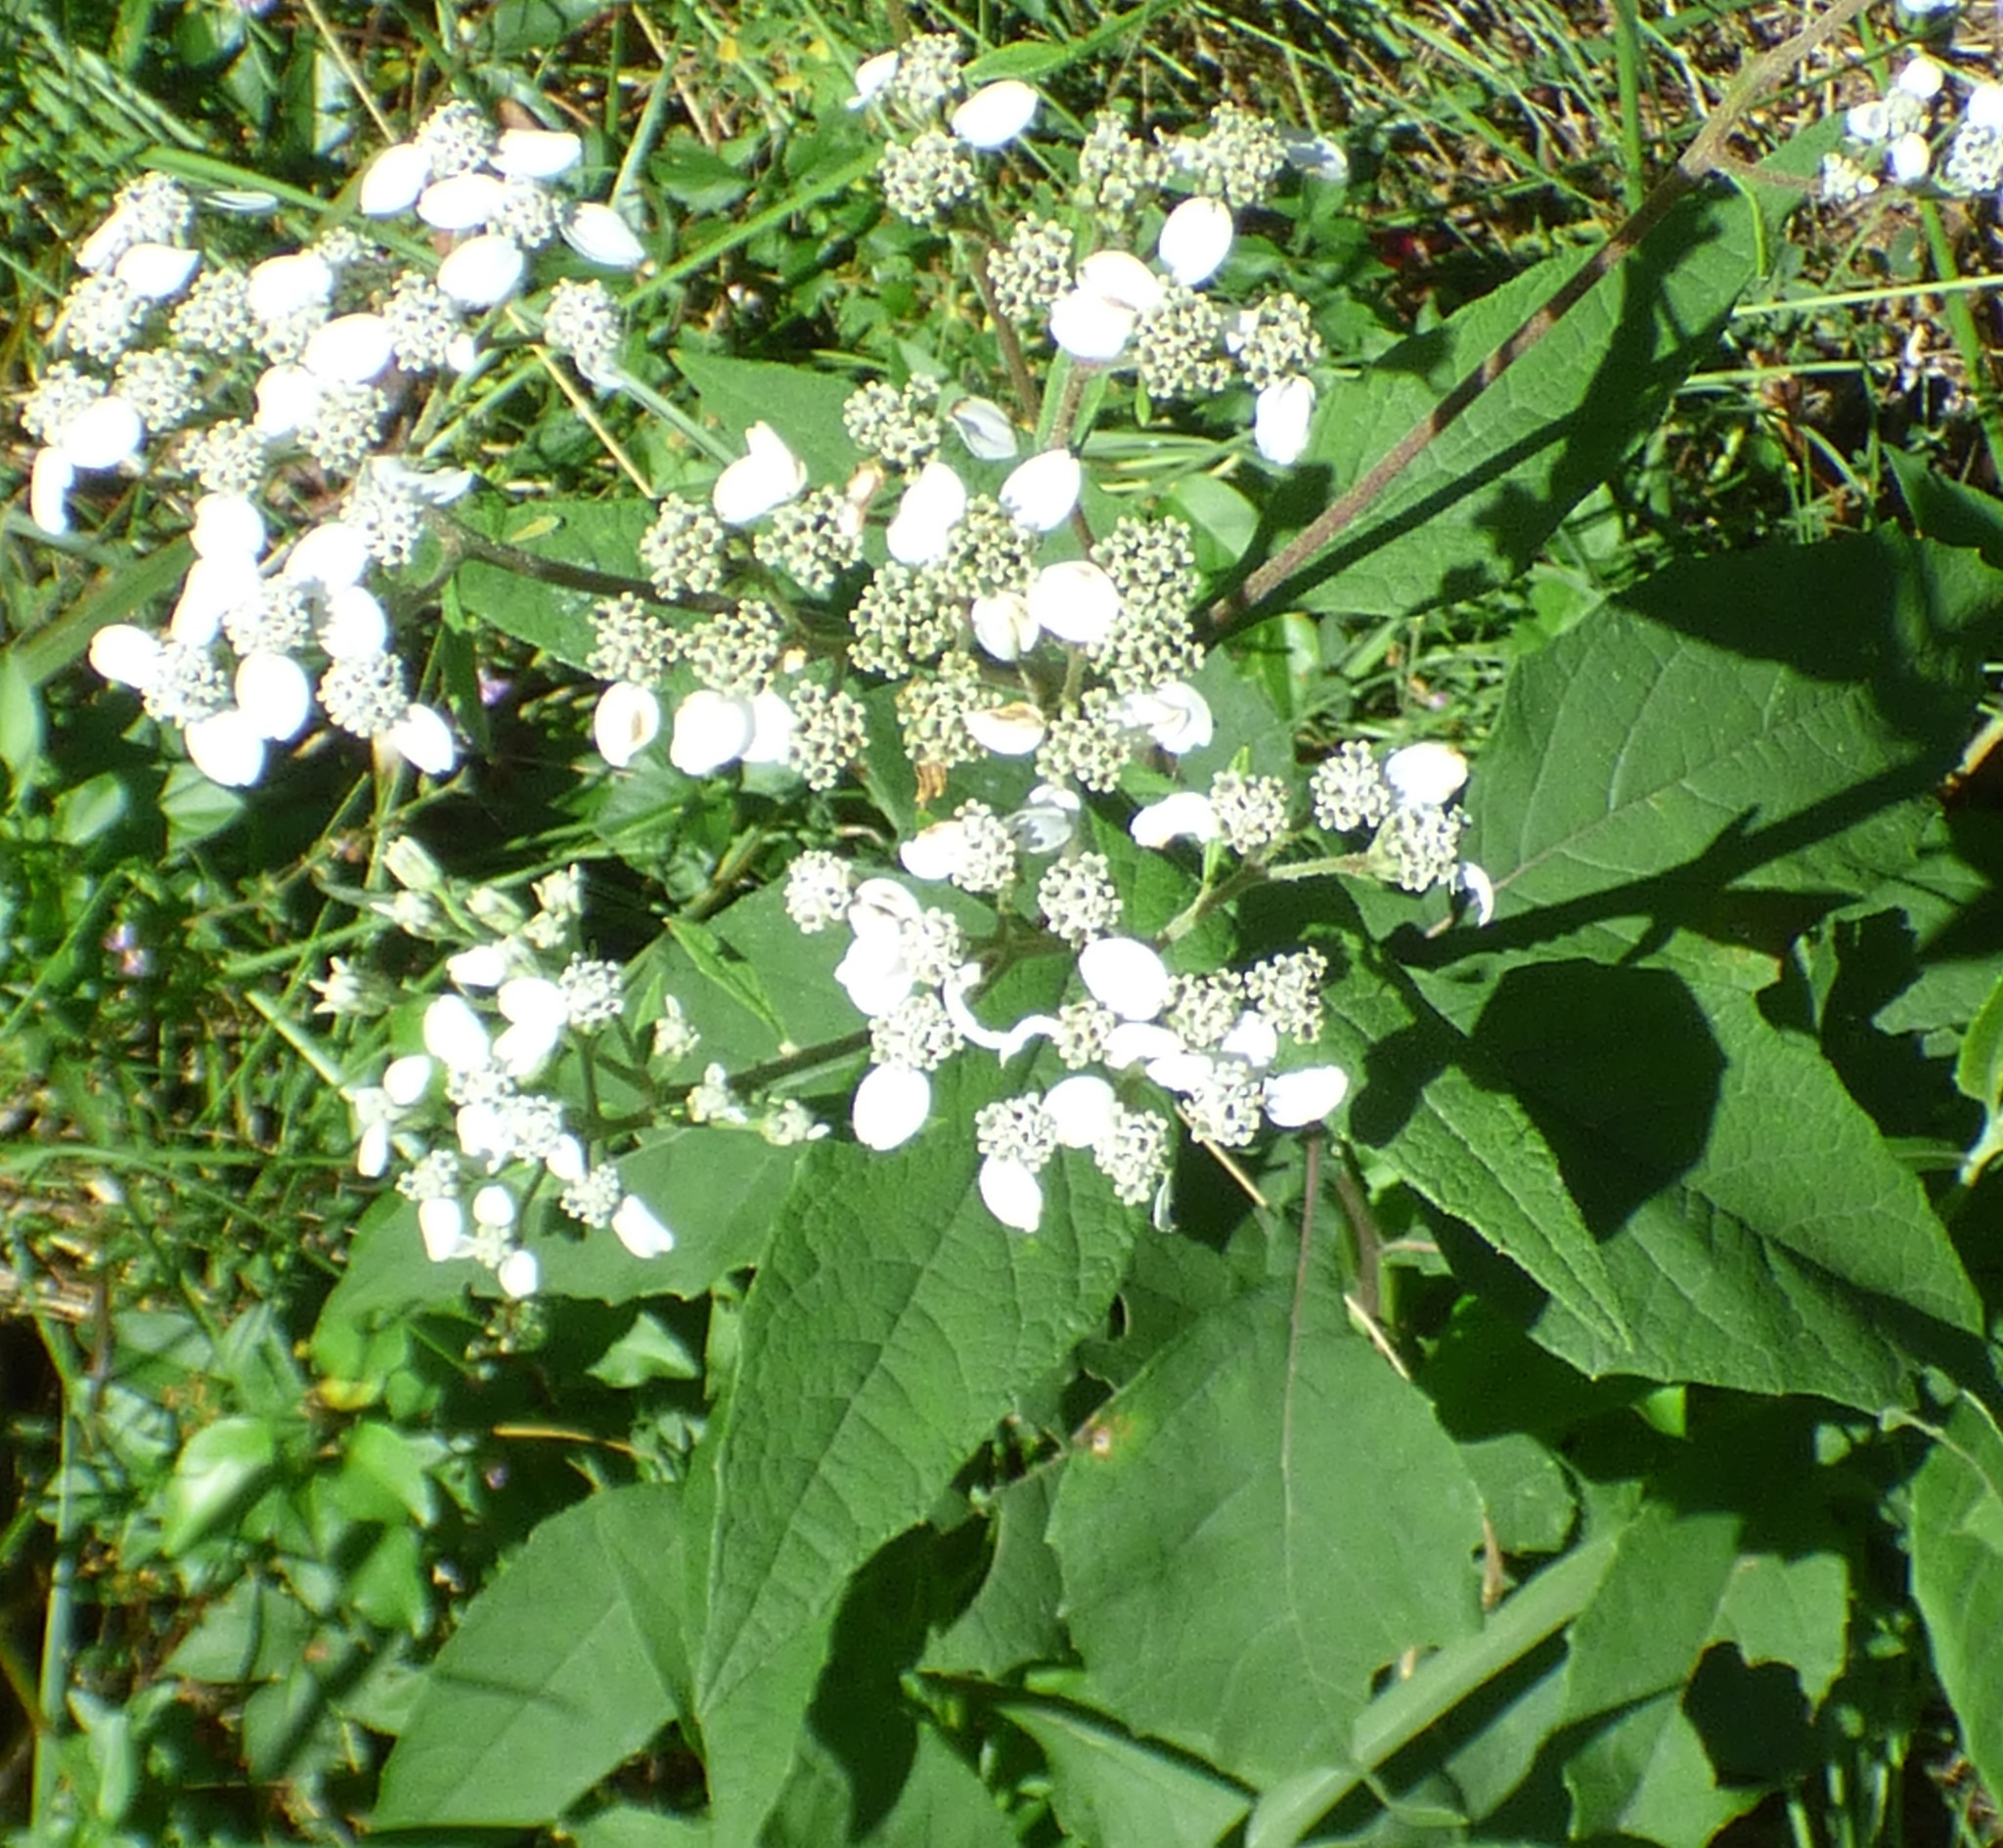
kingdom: Plantae
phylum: Tracheophyta
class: Magnoliopsida
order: Asterales
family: Asteraceae
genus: Verbesina
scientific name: Verbesina virginica
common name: Frostweed
